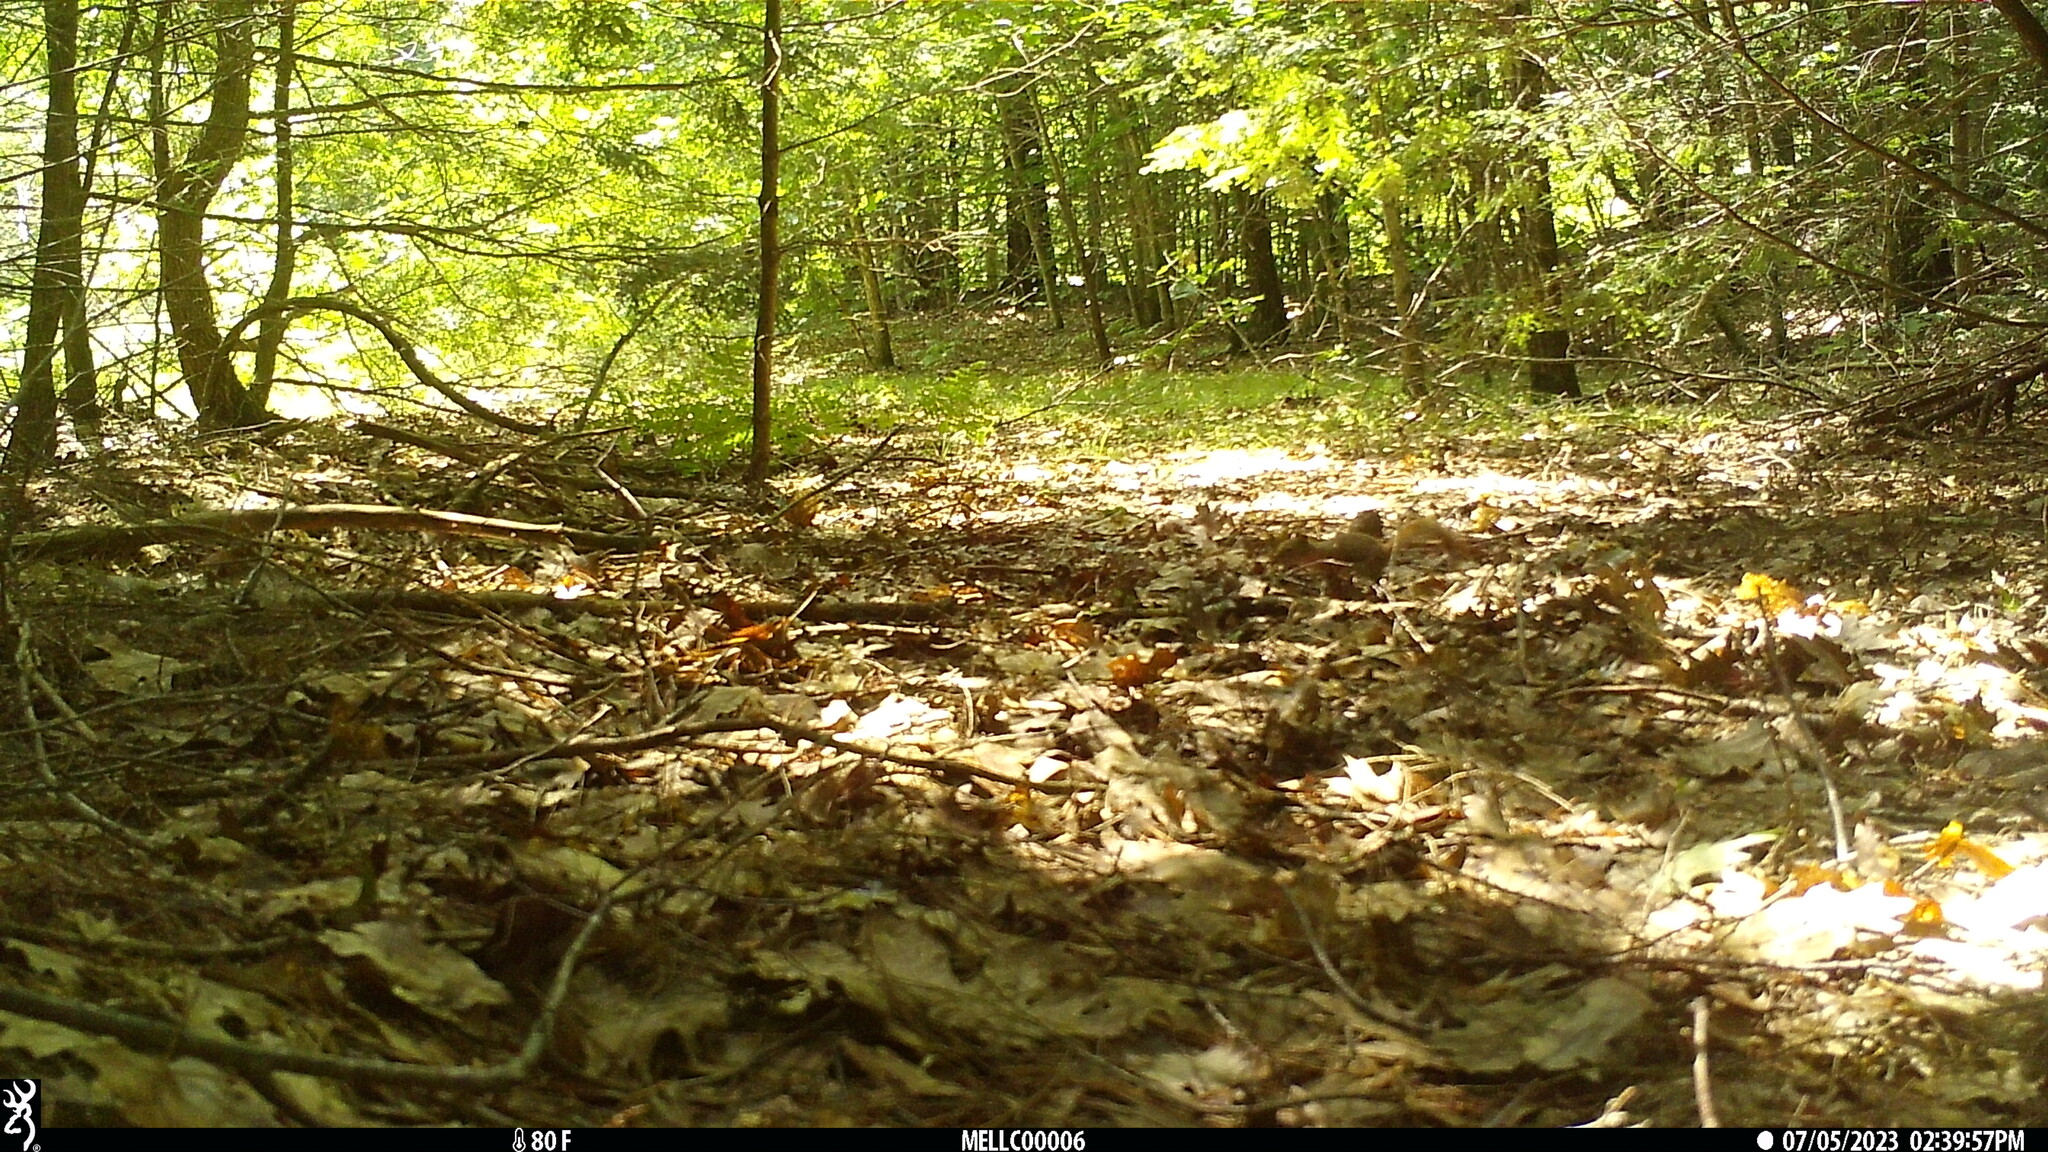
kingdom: Animalia
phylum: Chordata
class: Mammalia
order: Rodentia
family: Sciuridae
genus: Tamiasciurus
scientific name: Tamiasciurus hudsonicus
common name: Red squirrel
